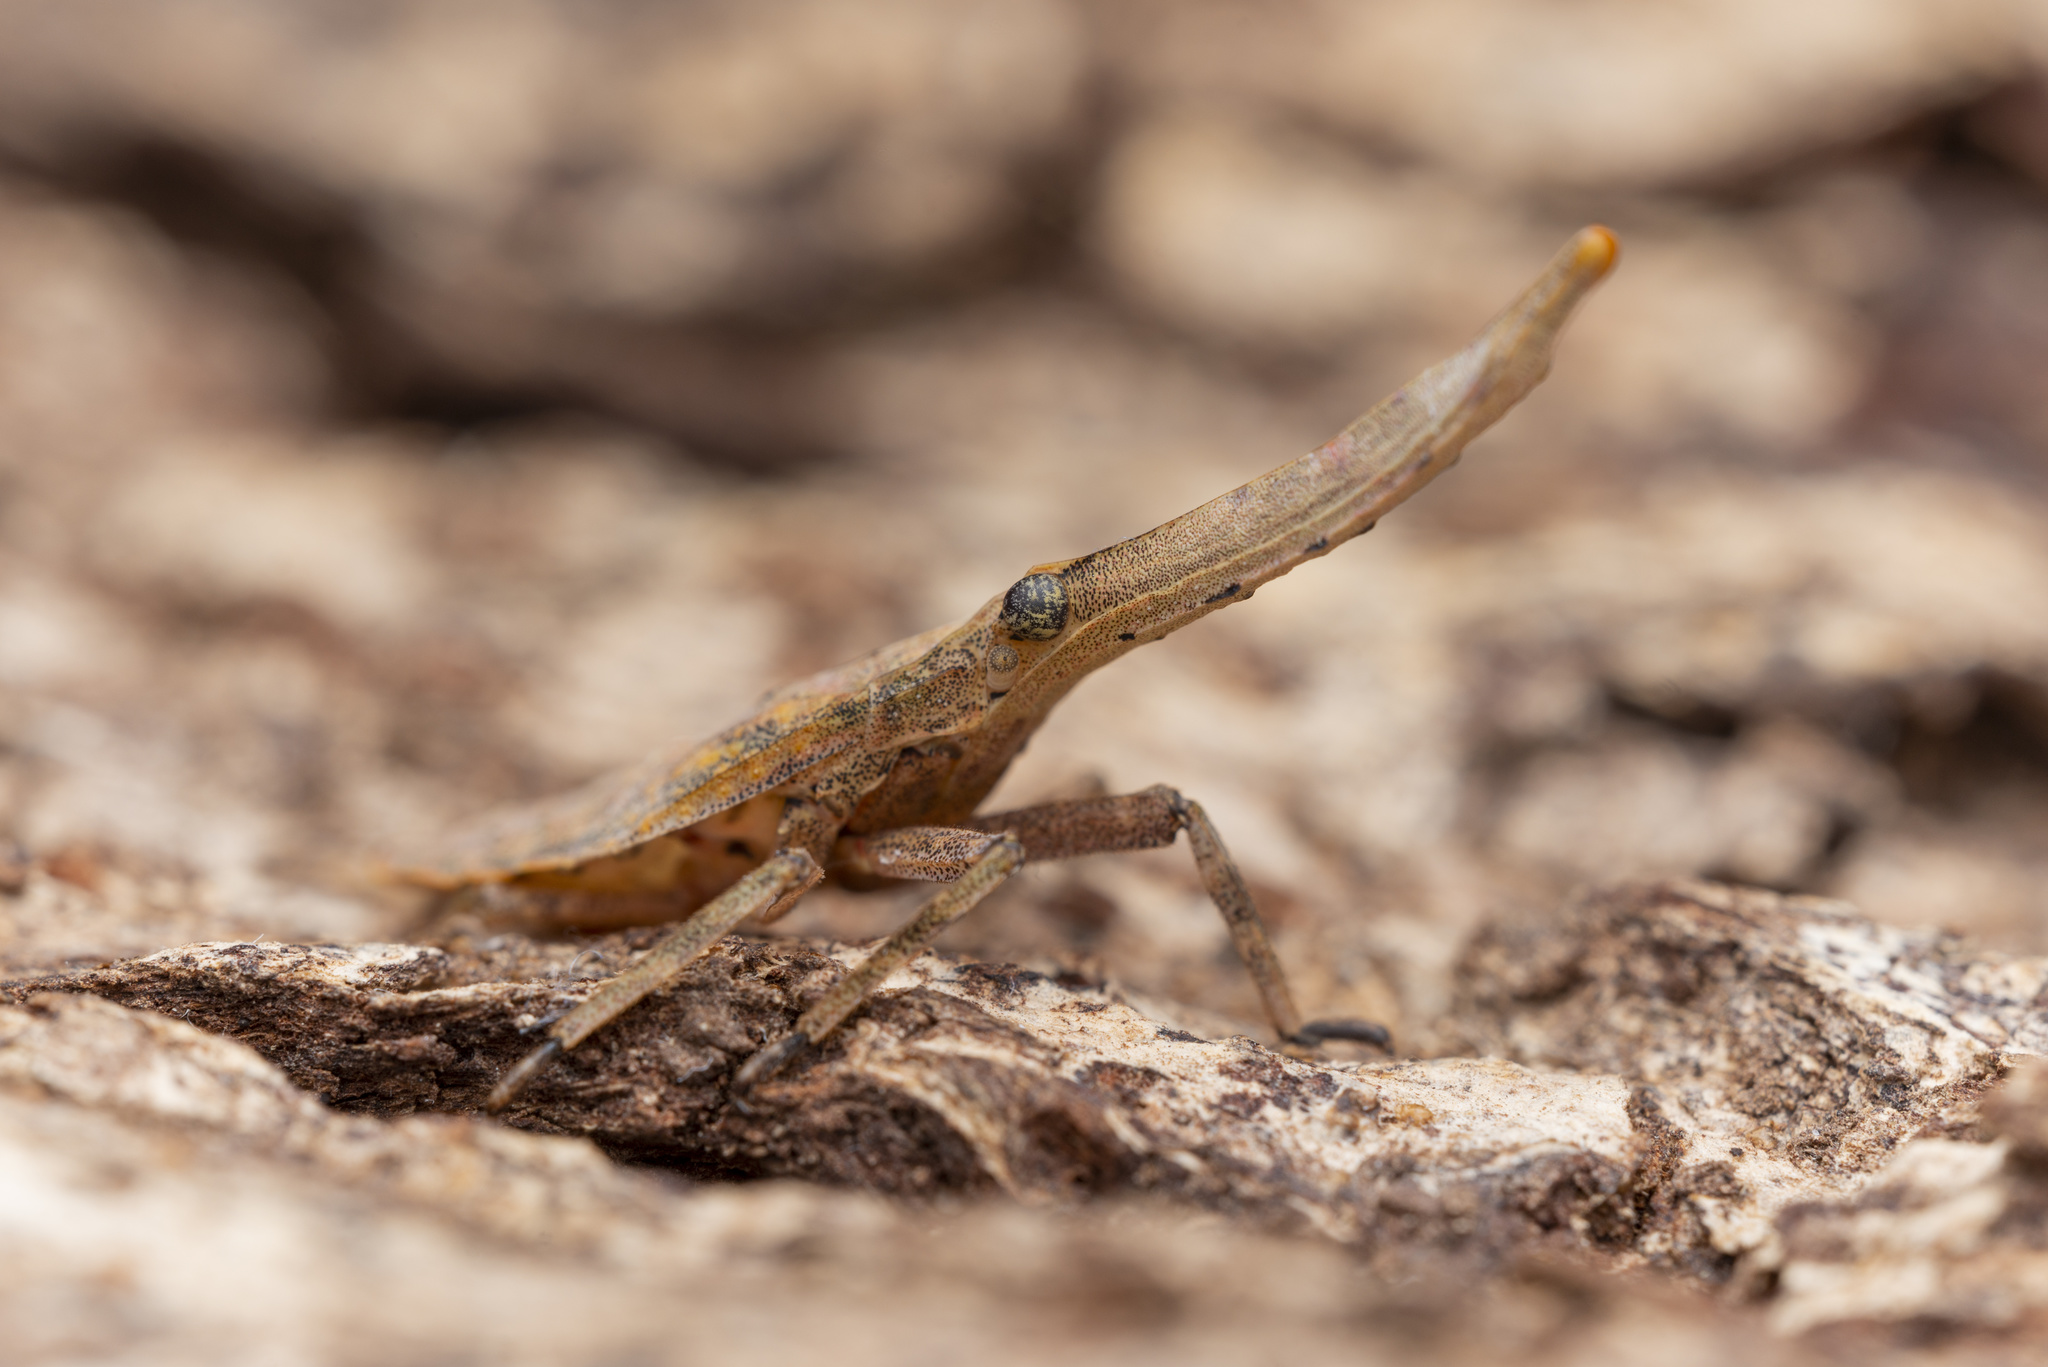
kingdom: Animalia
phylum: Arthropoda
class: Insecta
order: Hemiptera
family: Fulgoridae
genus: Pyrops
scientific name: Pyrops candelaria
